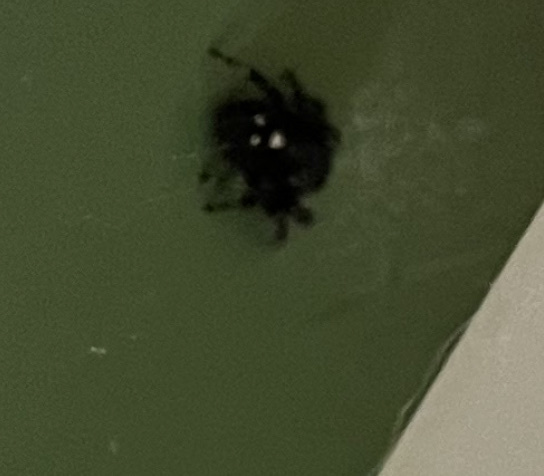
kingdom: Animalia
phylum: Arthropoda
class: Arachnida
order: Araneae
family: Salticidae
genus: Phidippus
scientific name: Phidippus audax
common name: Bold jumper
